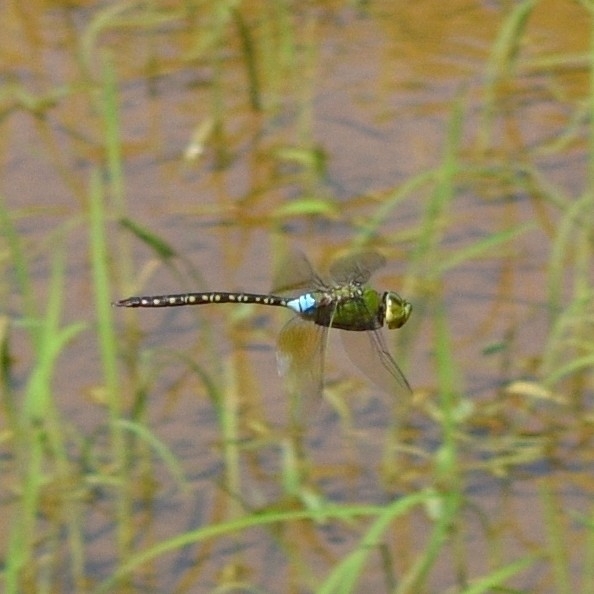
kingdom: Animalia
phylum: Arthropoda
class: Insecta
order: Odonata
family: Aeshnidae
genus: Anax
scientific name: Anax guttatus
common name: Emperor
